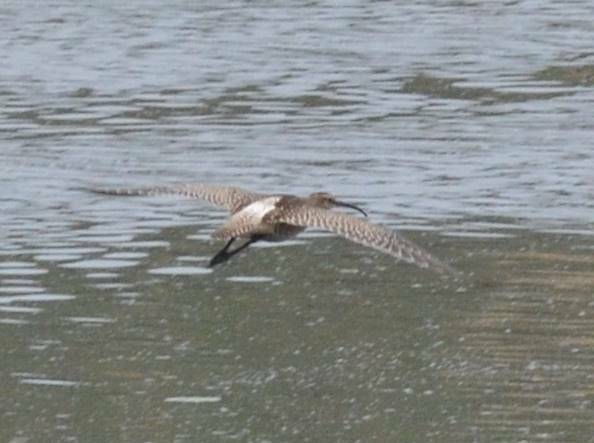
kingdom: Animalia
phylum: Chordata
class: Aves
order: Charadriiformes
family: Scolopacidae
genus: Numenius
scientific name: Numenius phaeopus
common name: Whimbrel
